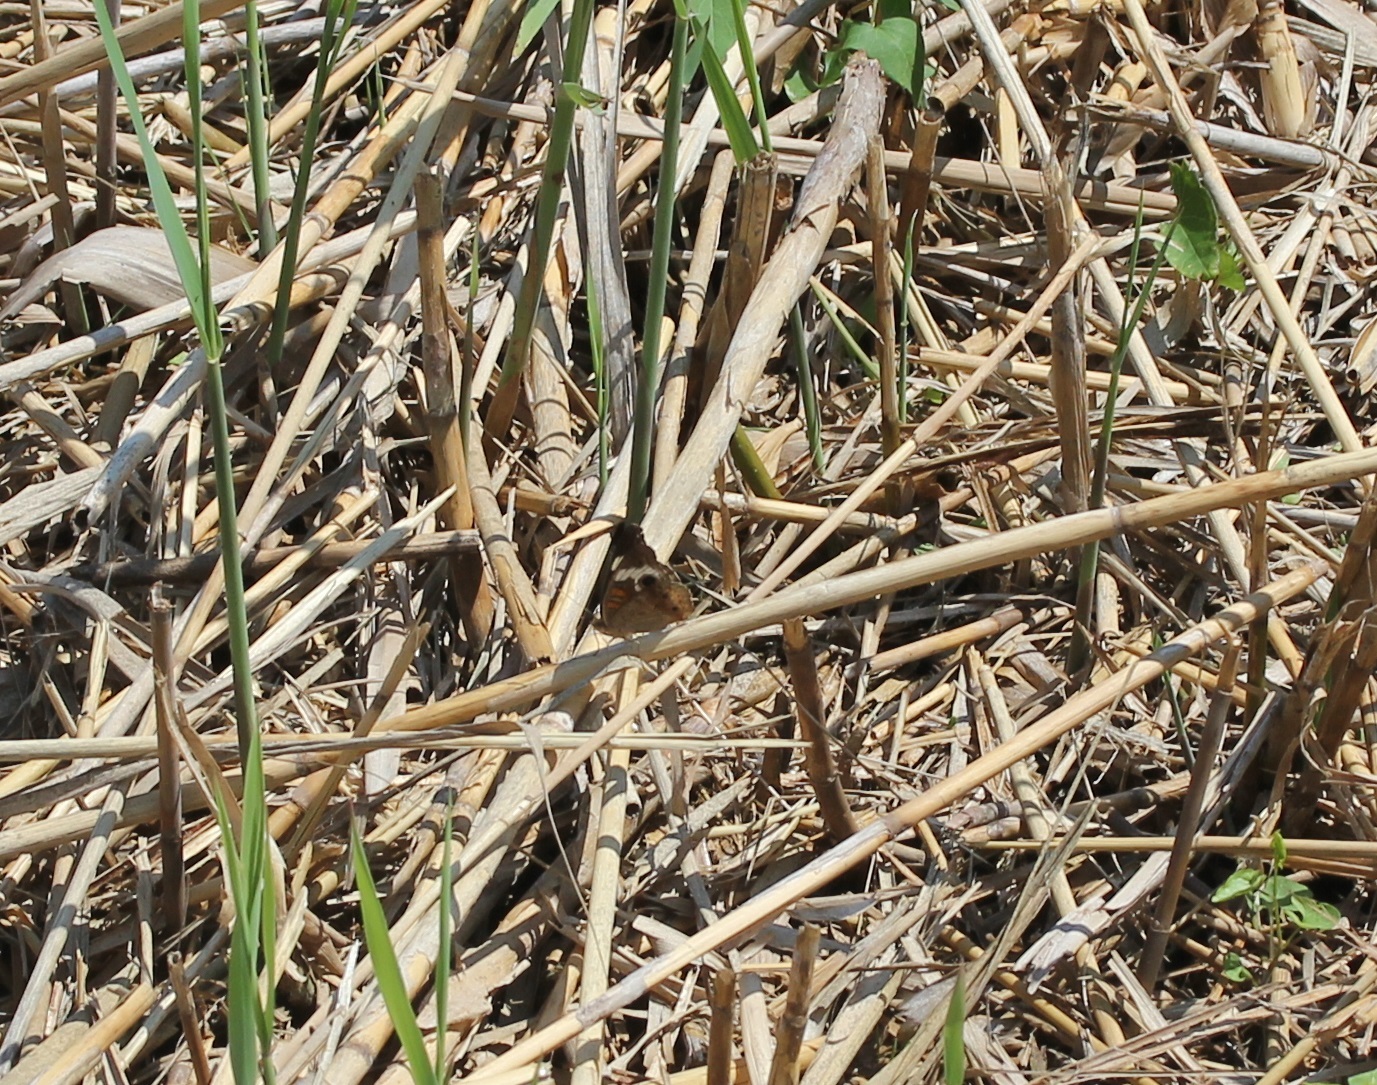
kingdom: Animalia
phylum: Arthropoda
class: Insecta
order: Lepidoptera
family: Nymphalidae
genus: Junonia
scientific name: Junonia coenia
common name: Common buckeye
